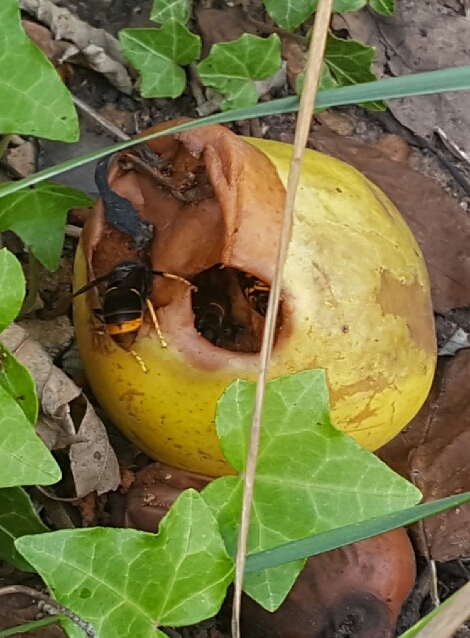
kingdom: Animalia
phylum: Arthropoda
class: Insecta
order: Hymenoptera
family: Vespidae
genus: Vespa
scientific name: Vespa velutina
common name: Asian hornet
